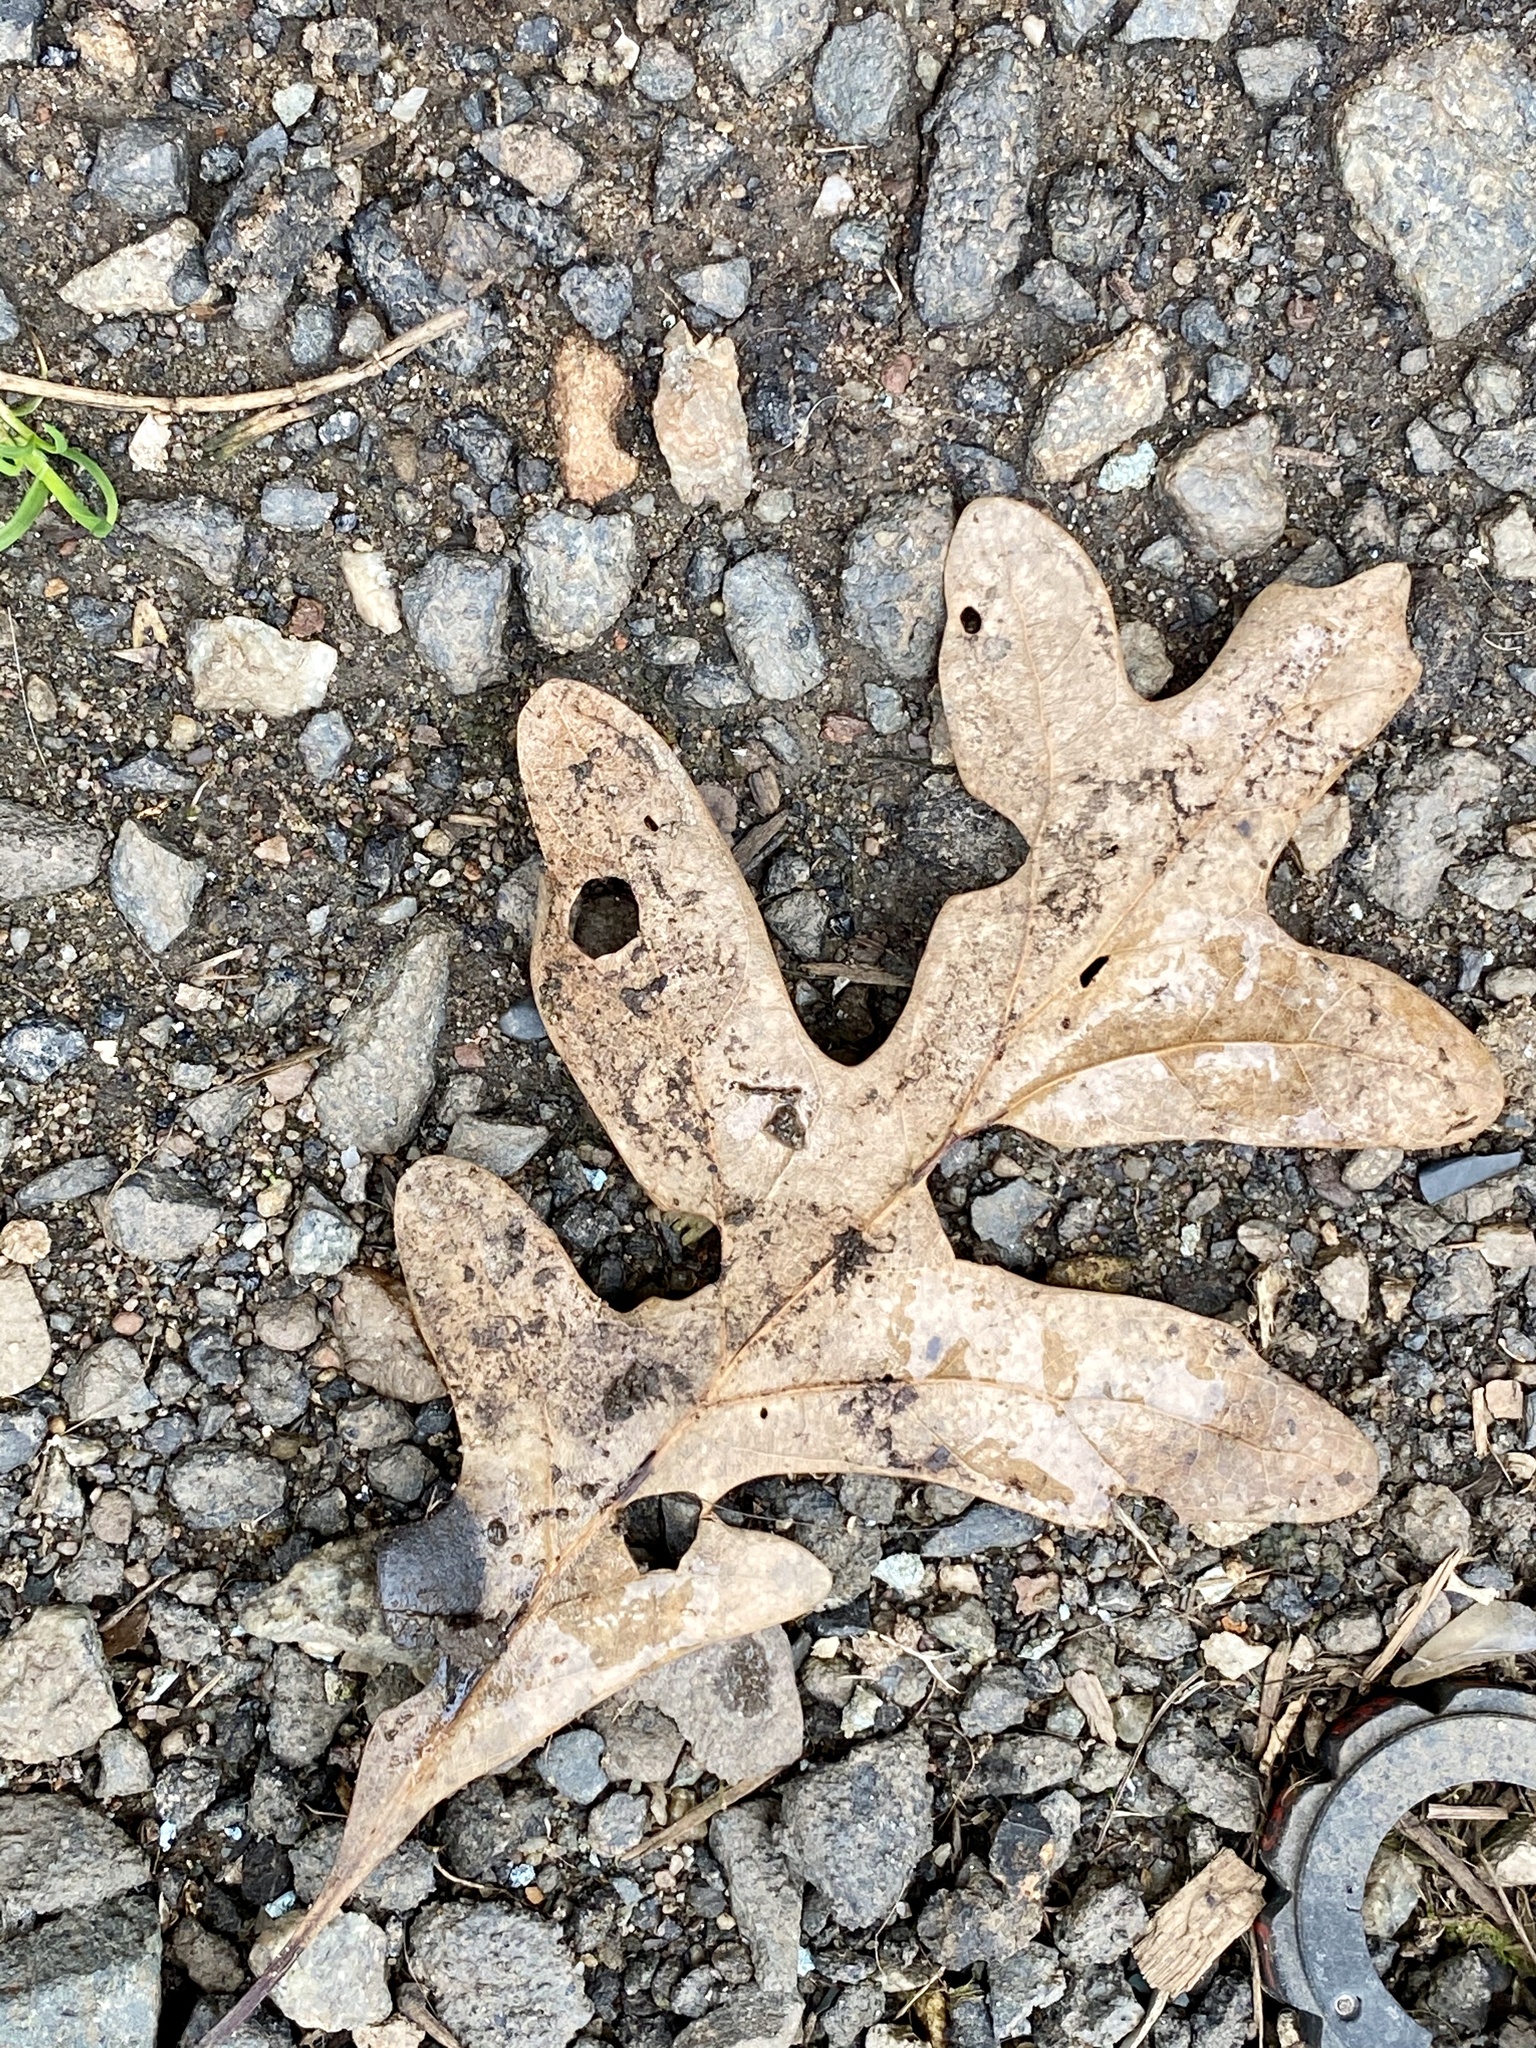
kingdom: Plantae
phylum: Tracheophyta
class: Magnoliopsida
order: Fagales
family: Fagaceae
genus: Quercus
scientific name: Quercus alba
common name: White oak
